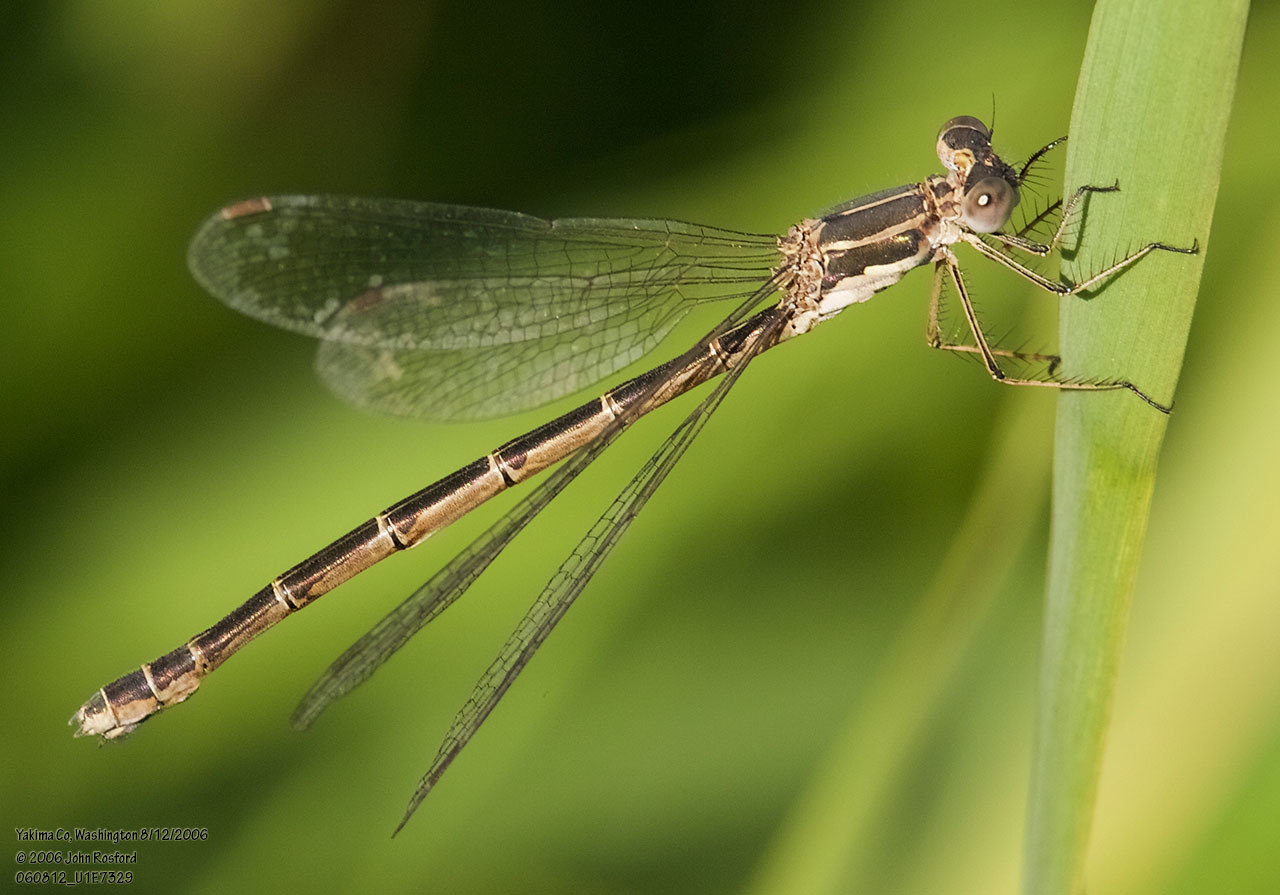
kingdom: Animalia
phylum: Arthropoda
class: Insecta
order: Odonata
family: Lestidae
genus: Lestes
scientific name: Lestes congener
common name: Spotted spreadwing
